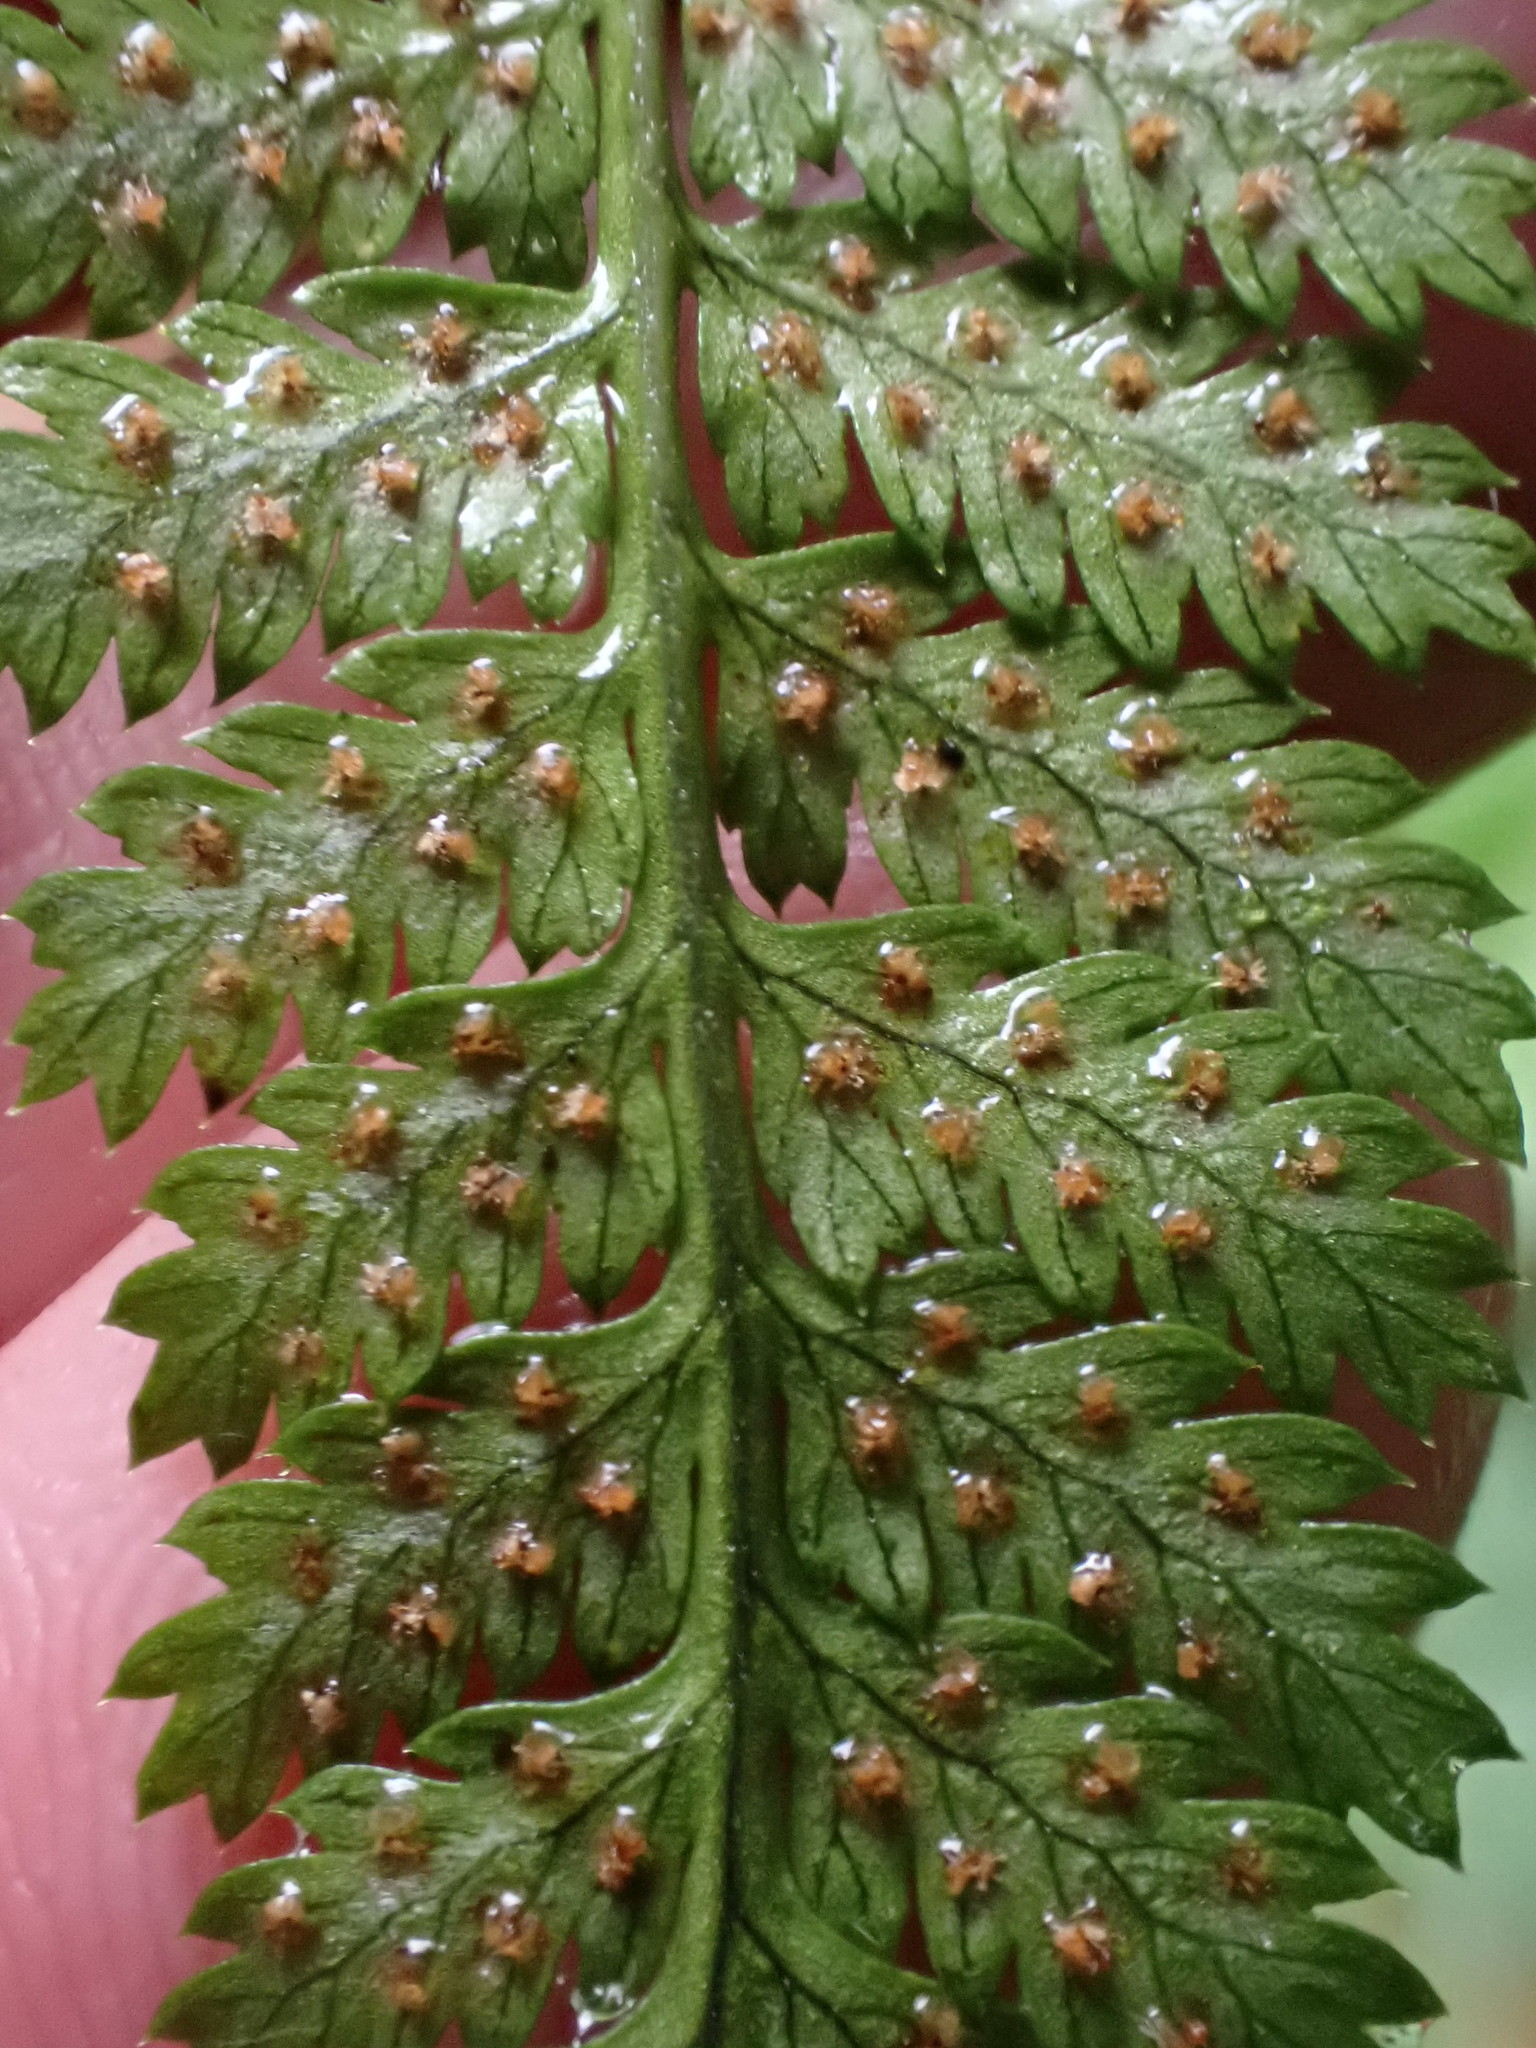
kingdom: Plantae
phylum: Tracheophyta
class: Polypodiopsida
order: Polypodiales
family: Dryopteridaceae
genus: Dryopteris
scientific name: Dryopteris intermedia
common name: Evergreen wood fern
